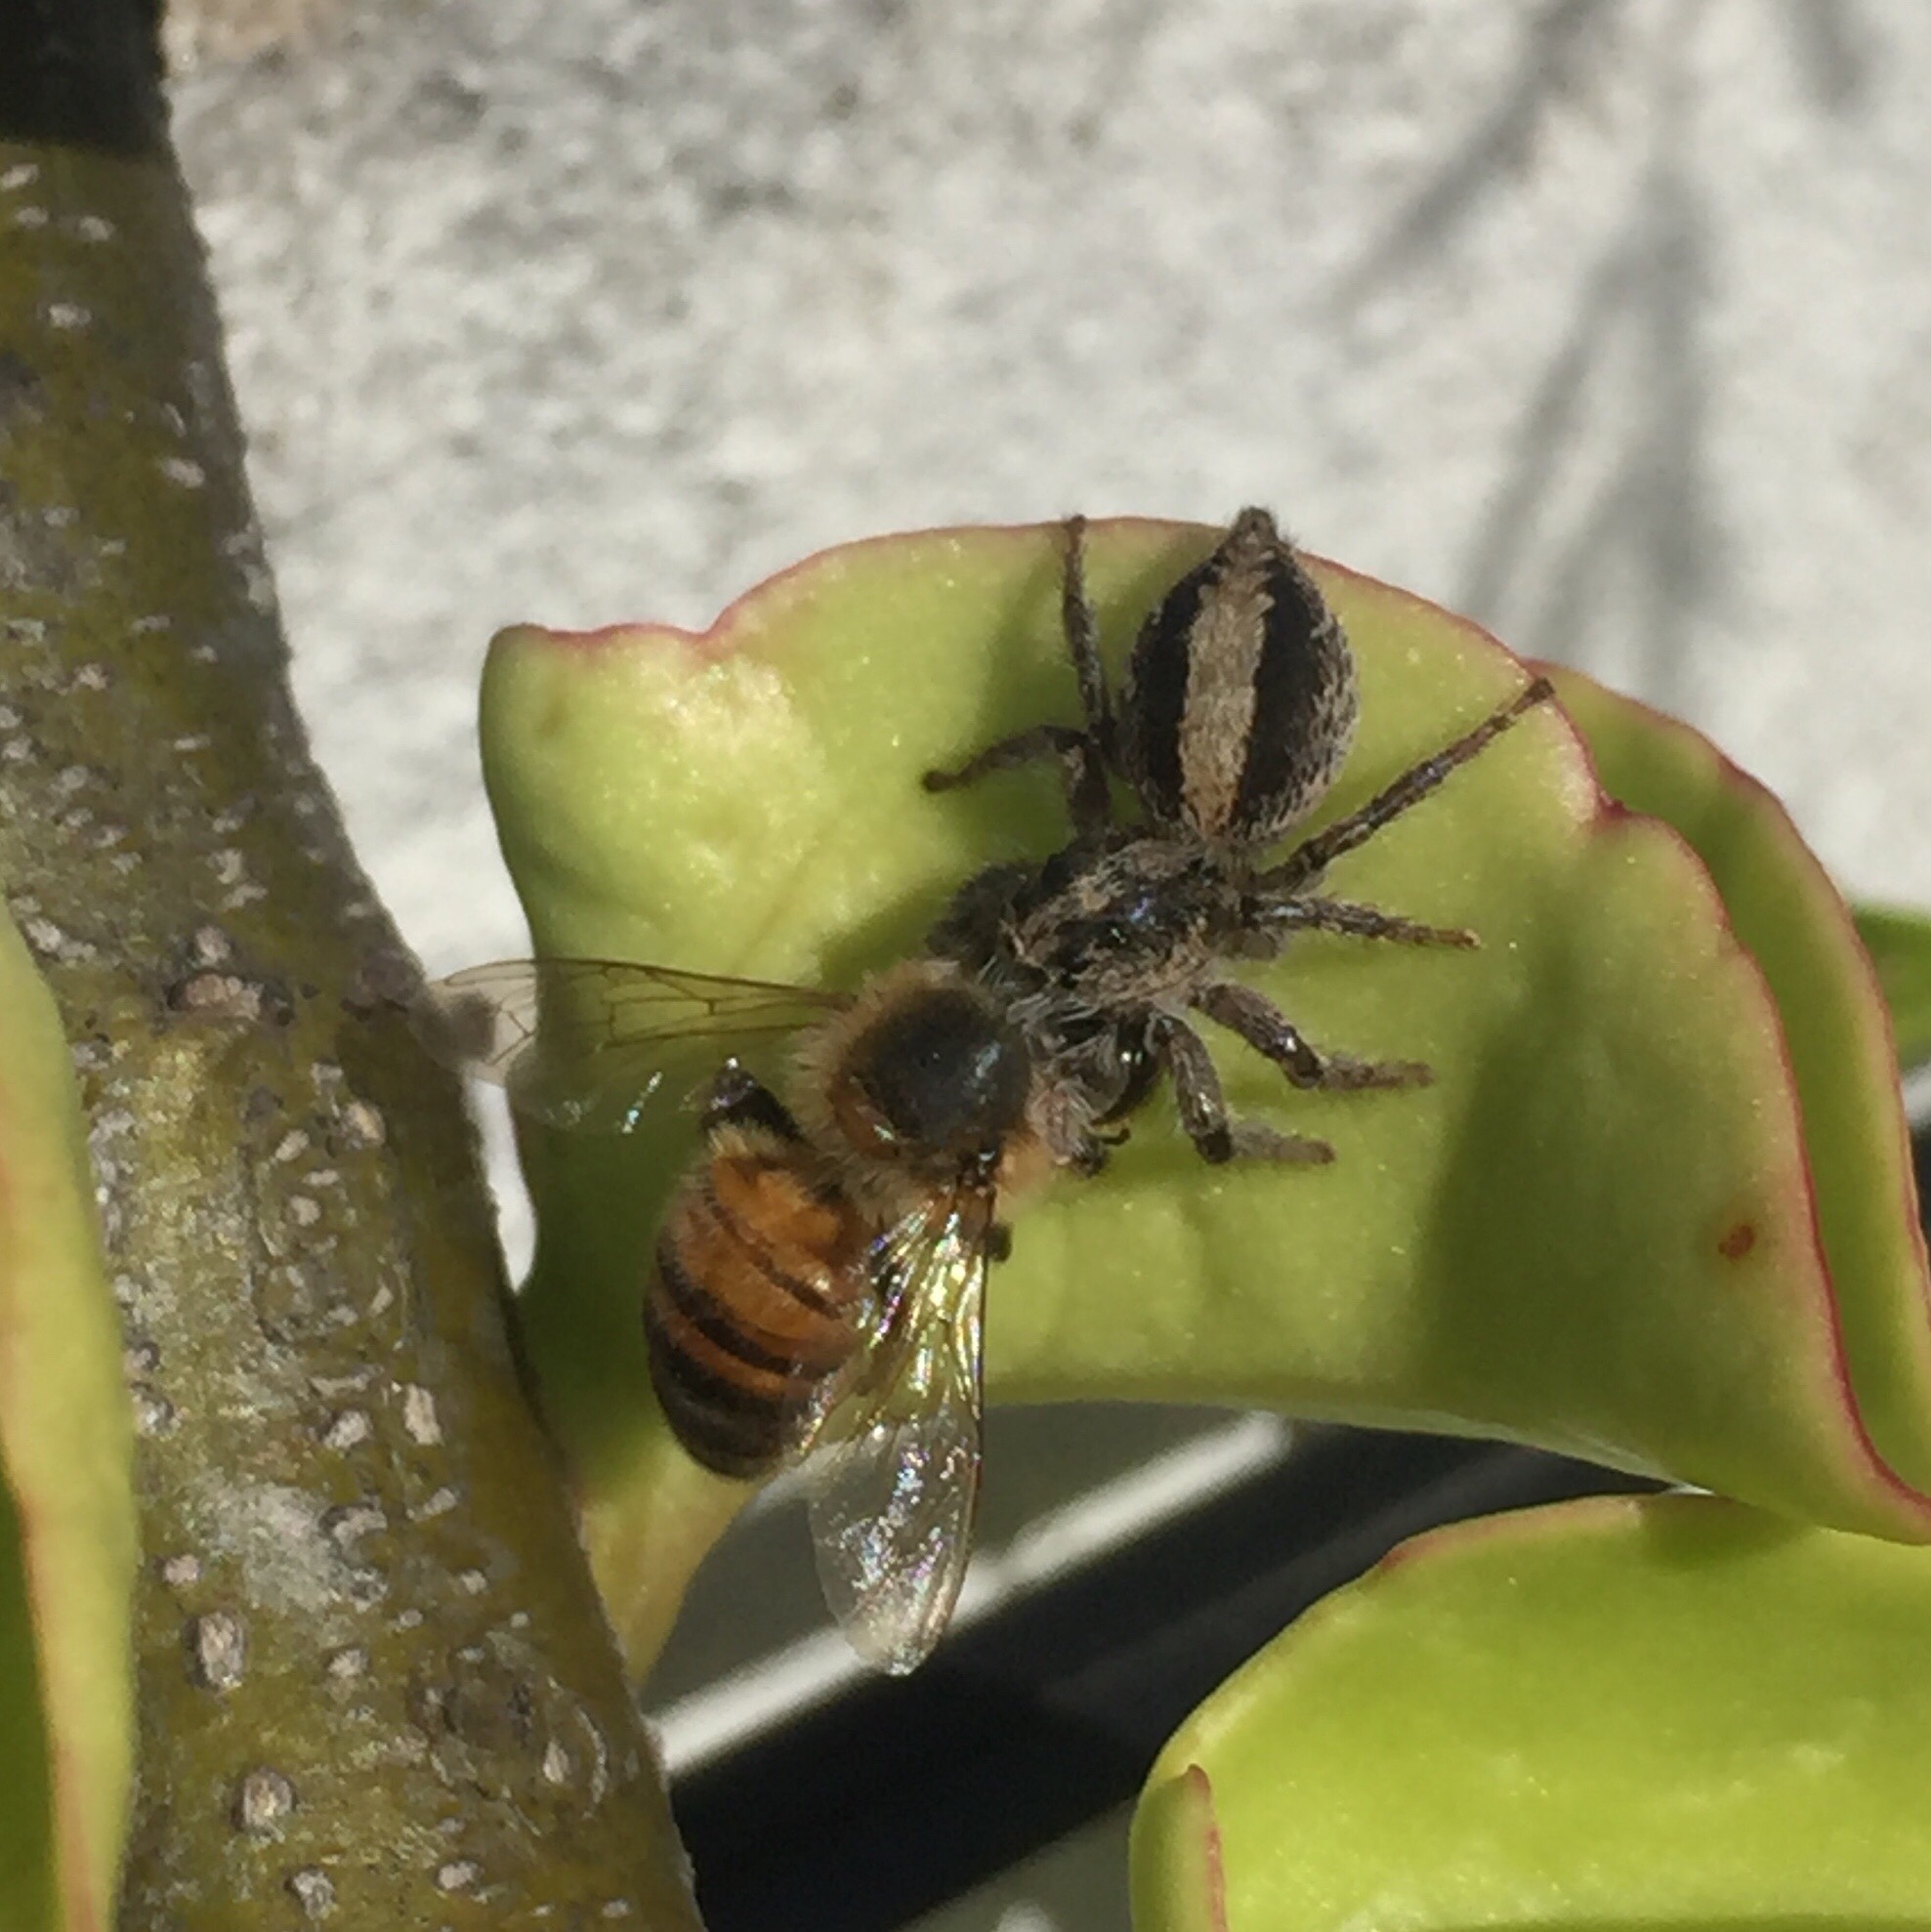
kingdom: Animalia
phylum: Arthropoda
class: Arachnida
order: Araneae
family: Salticidae
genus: Megafreya
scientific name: Megafreya sutrix
